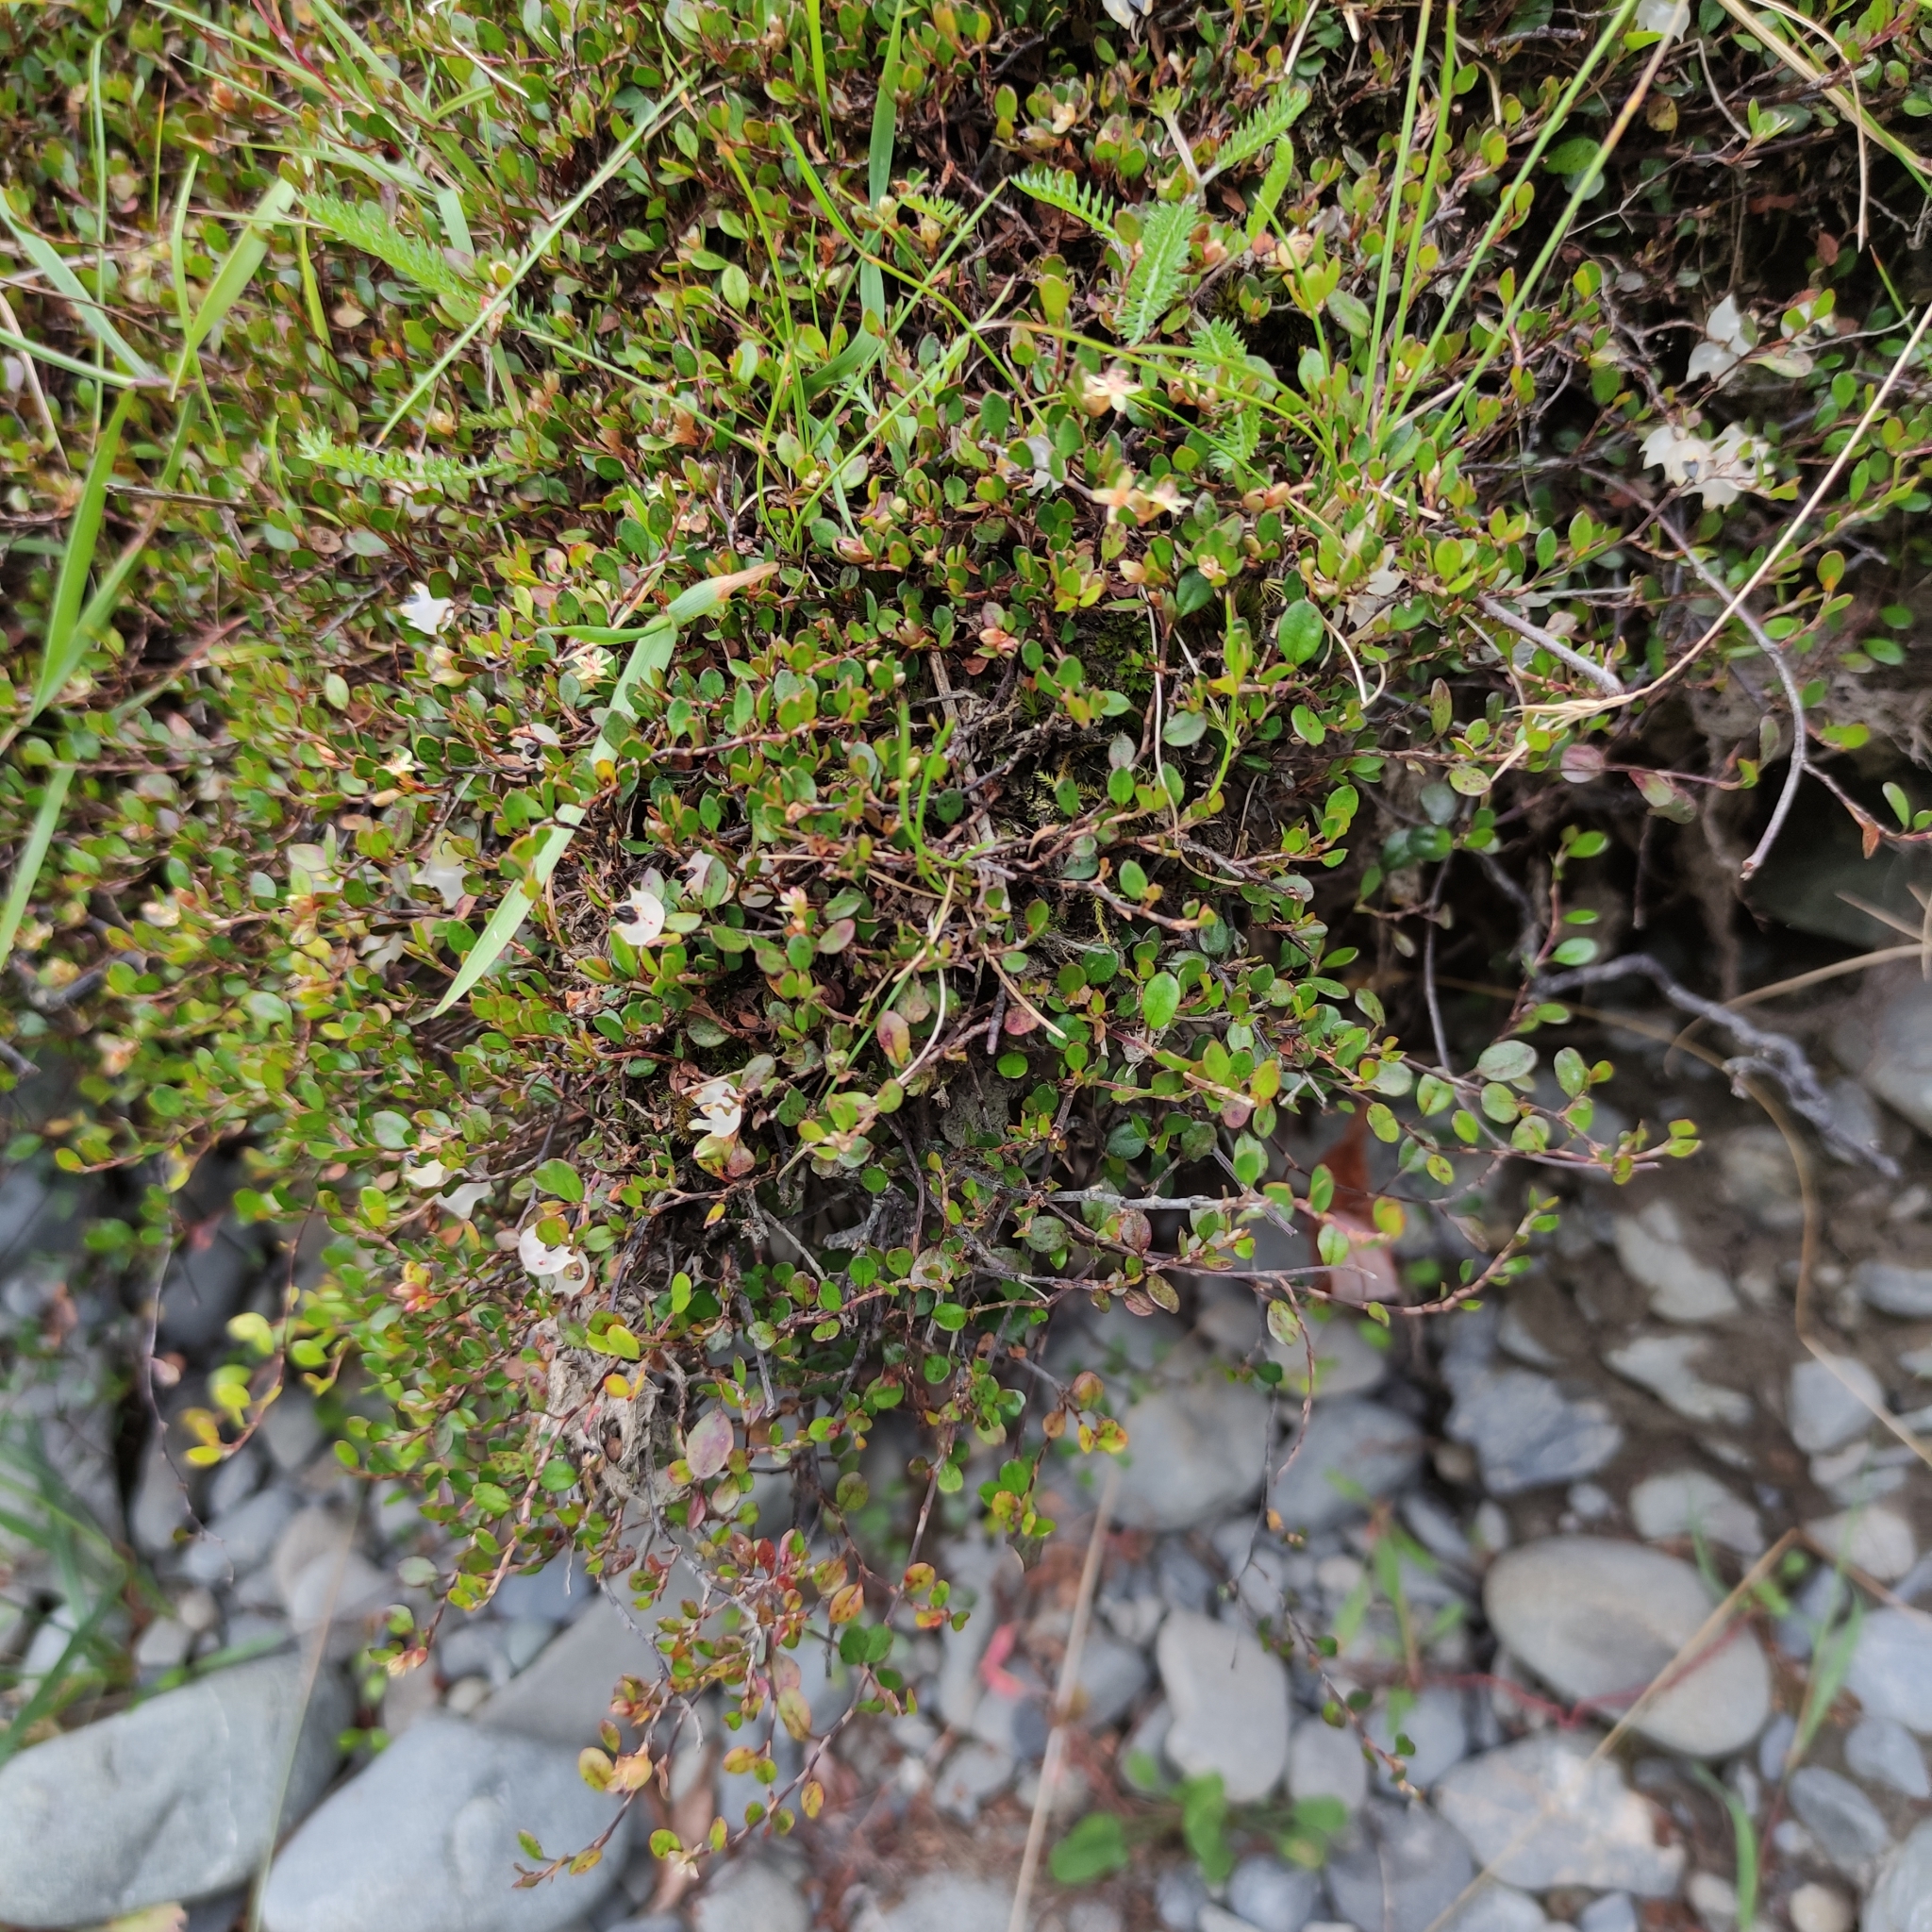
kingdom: Plantae
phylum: Tracheophyta
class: Magnoliopsida
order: Caryophyllales
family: Polygonaceae
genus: Muehlenbeckia
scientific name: Muehlenbeckia axillaris
